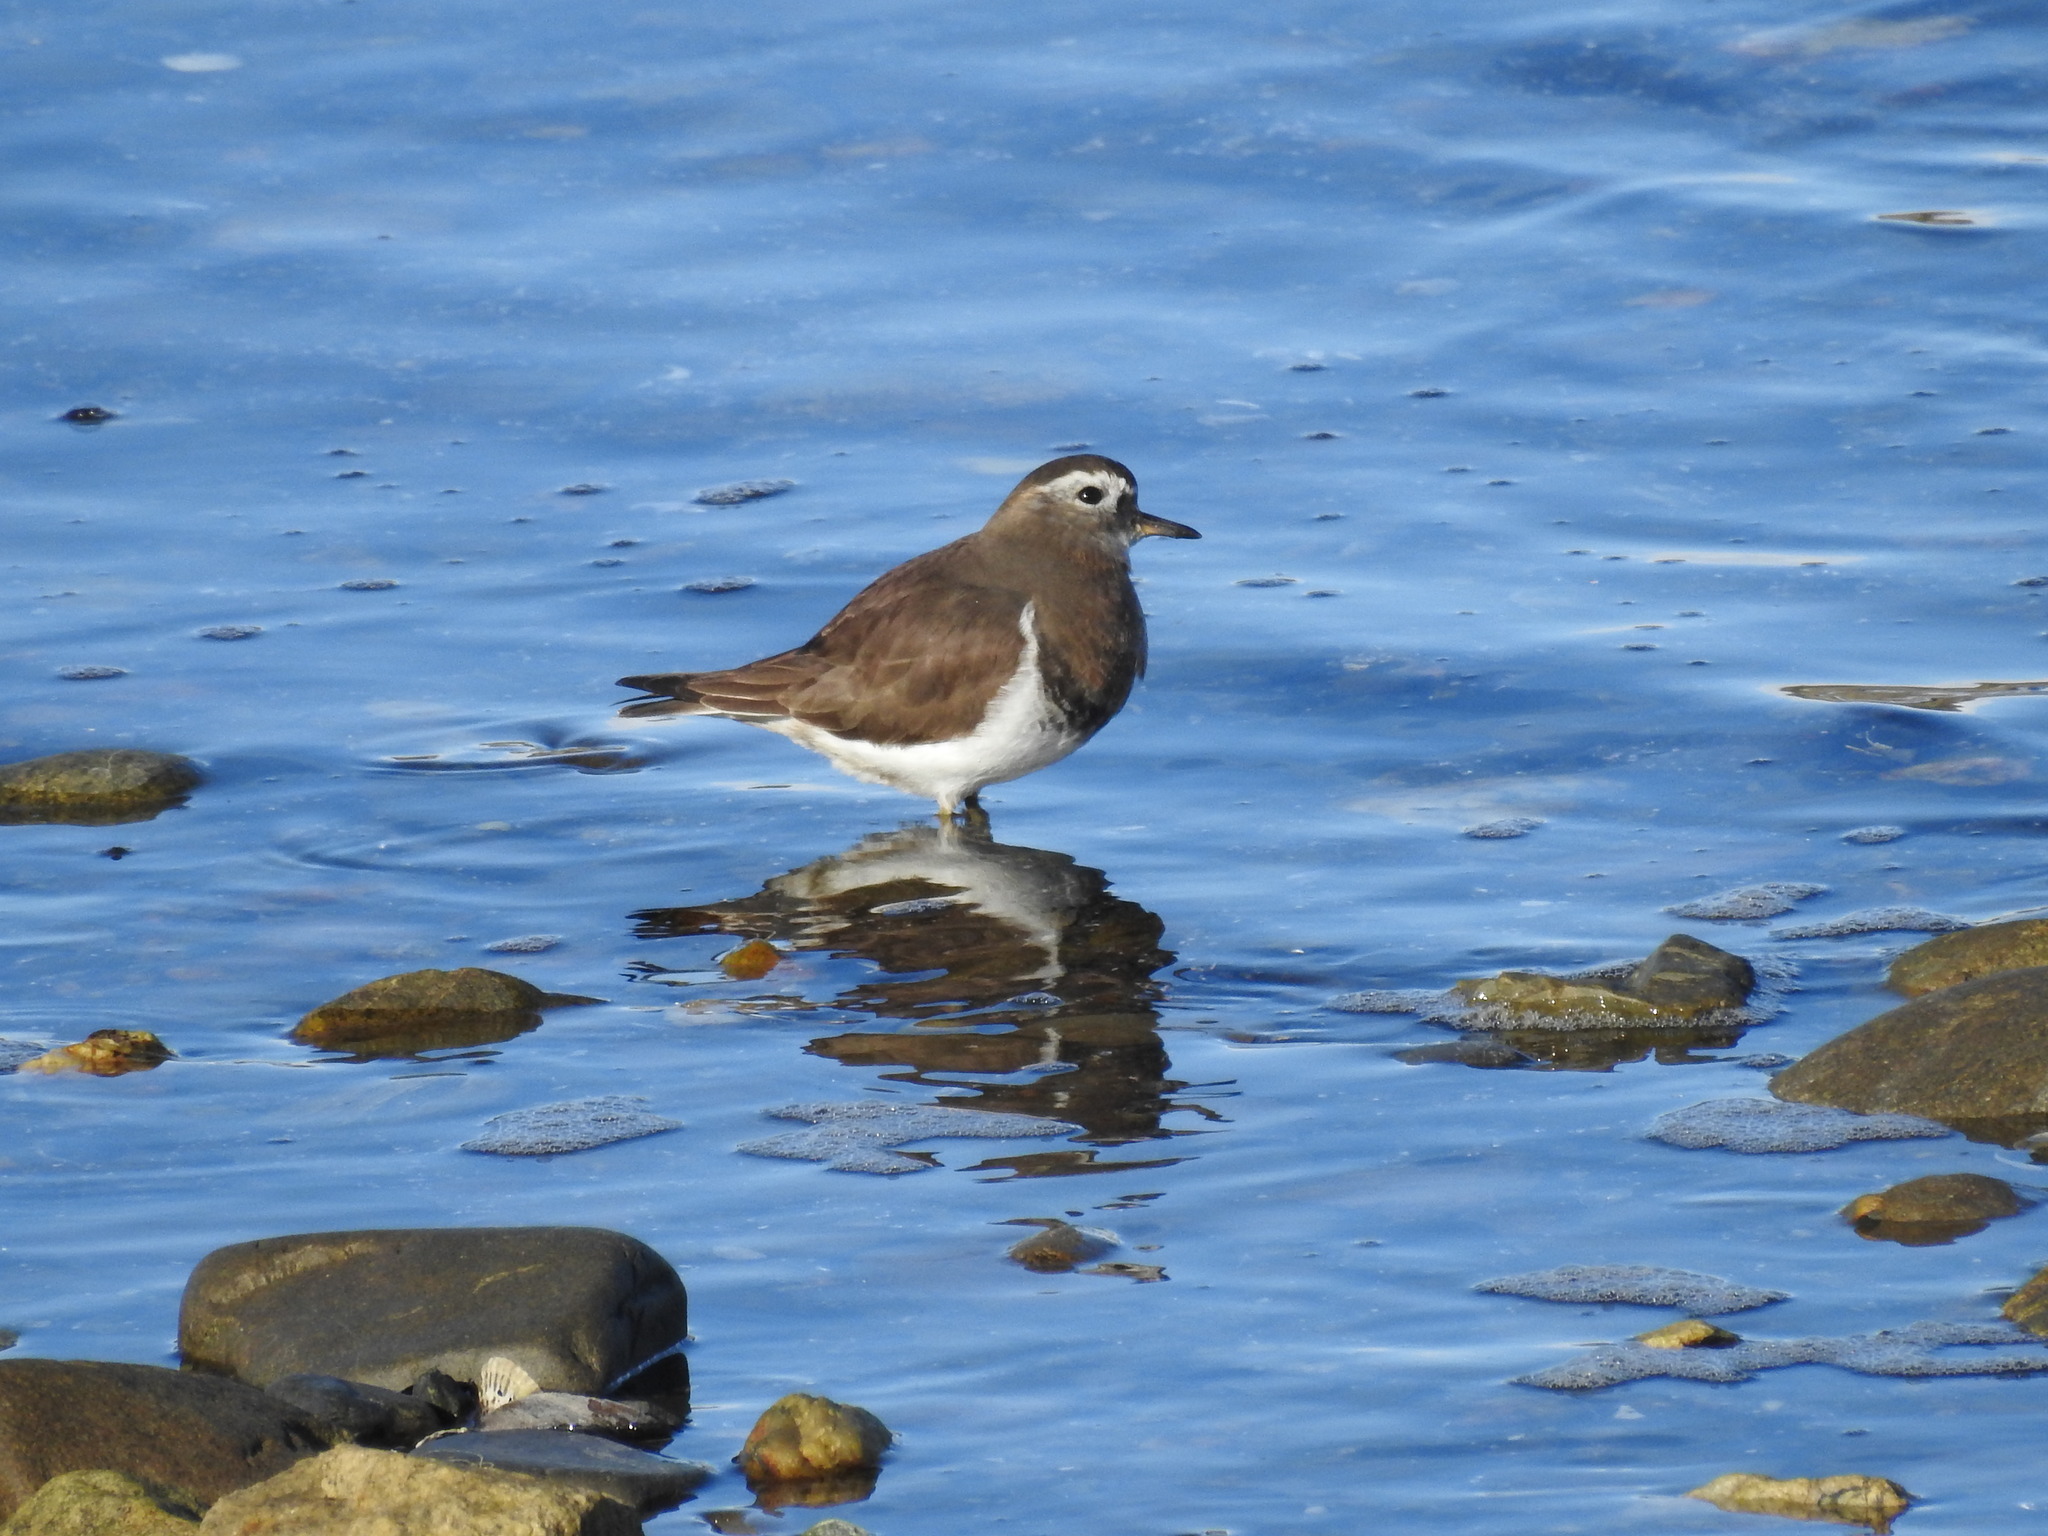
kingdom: Animalia
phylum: Chordata
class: Aves
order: Charadriiformes
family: Charadriidae
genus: Charadrius
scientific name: Charadrius modestus
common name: Rufous-chested plover
